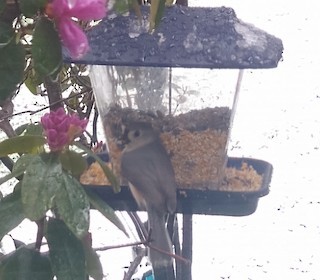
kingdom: Animalia
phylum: Chordata
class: Aves
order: Passeriformes
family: Paridae
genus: Baeolophus
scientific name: Baeolophus bicolor
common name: Tufted titmouse
